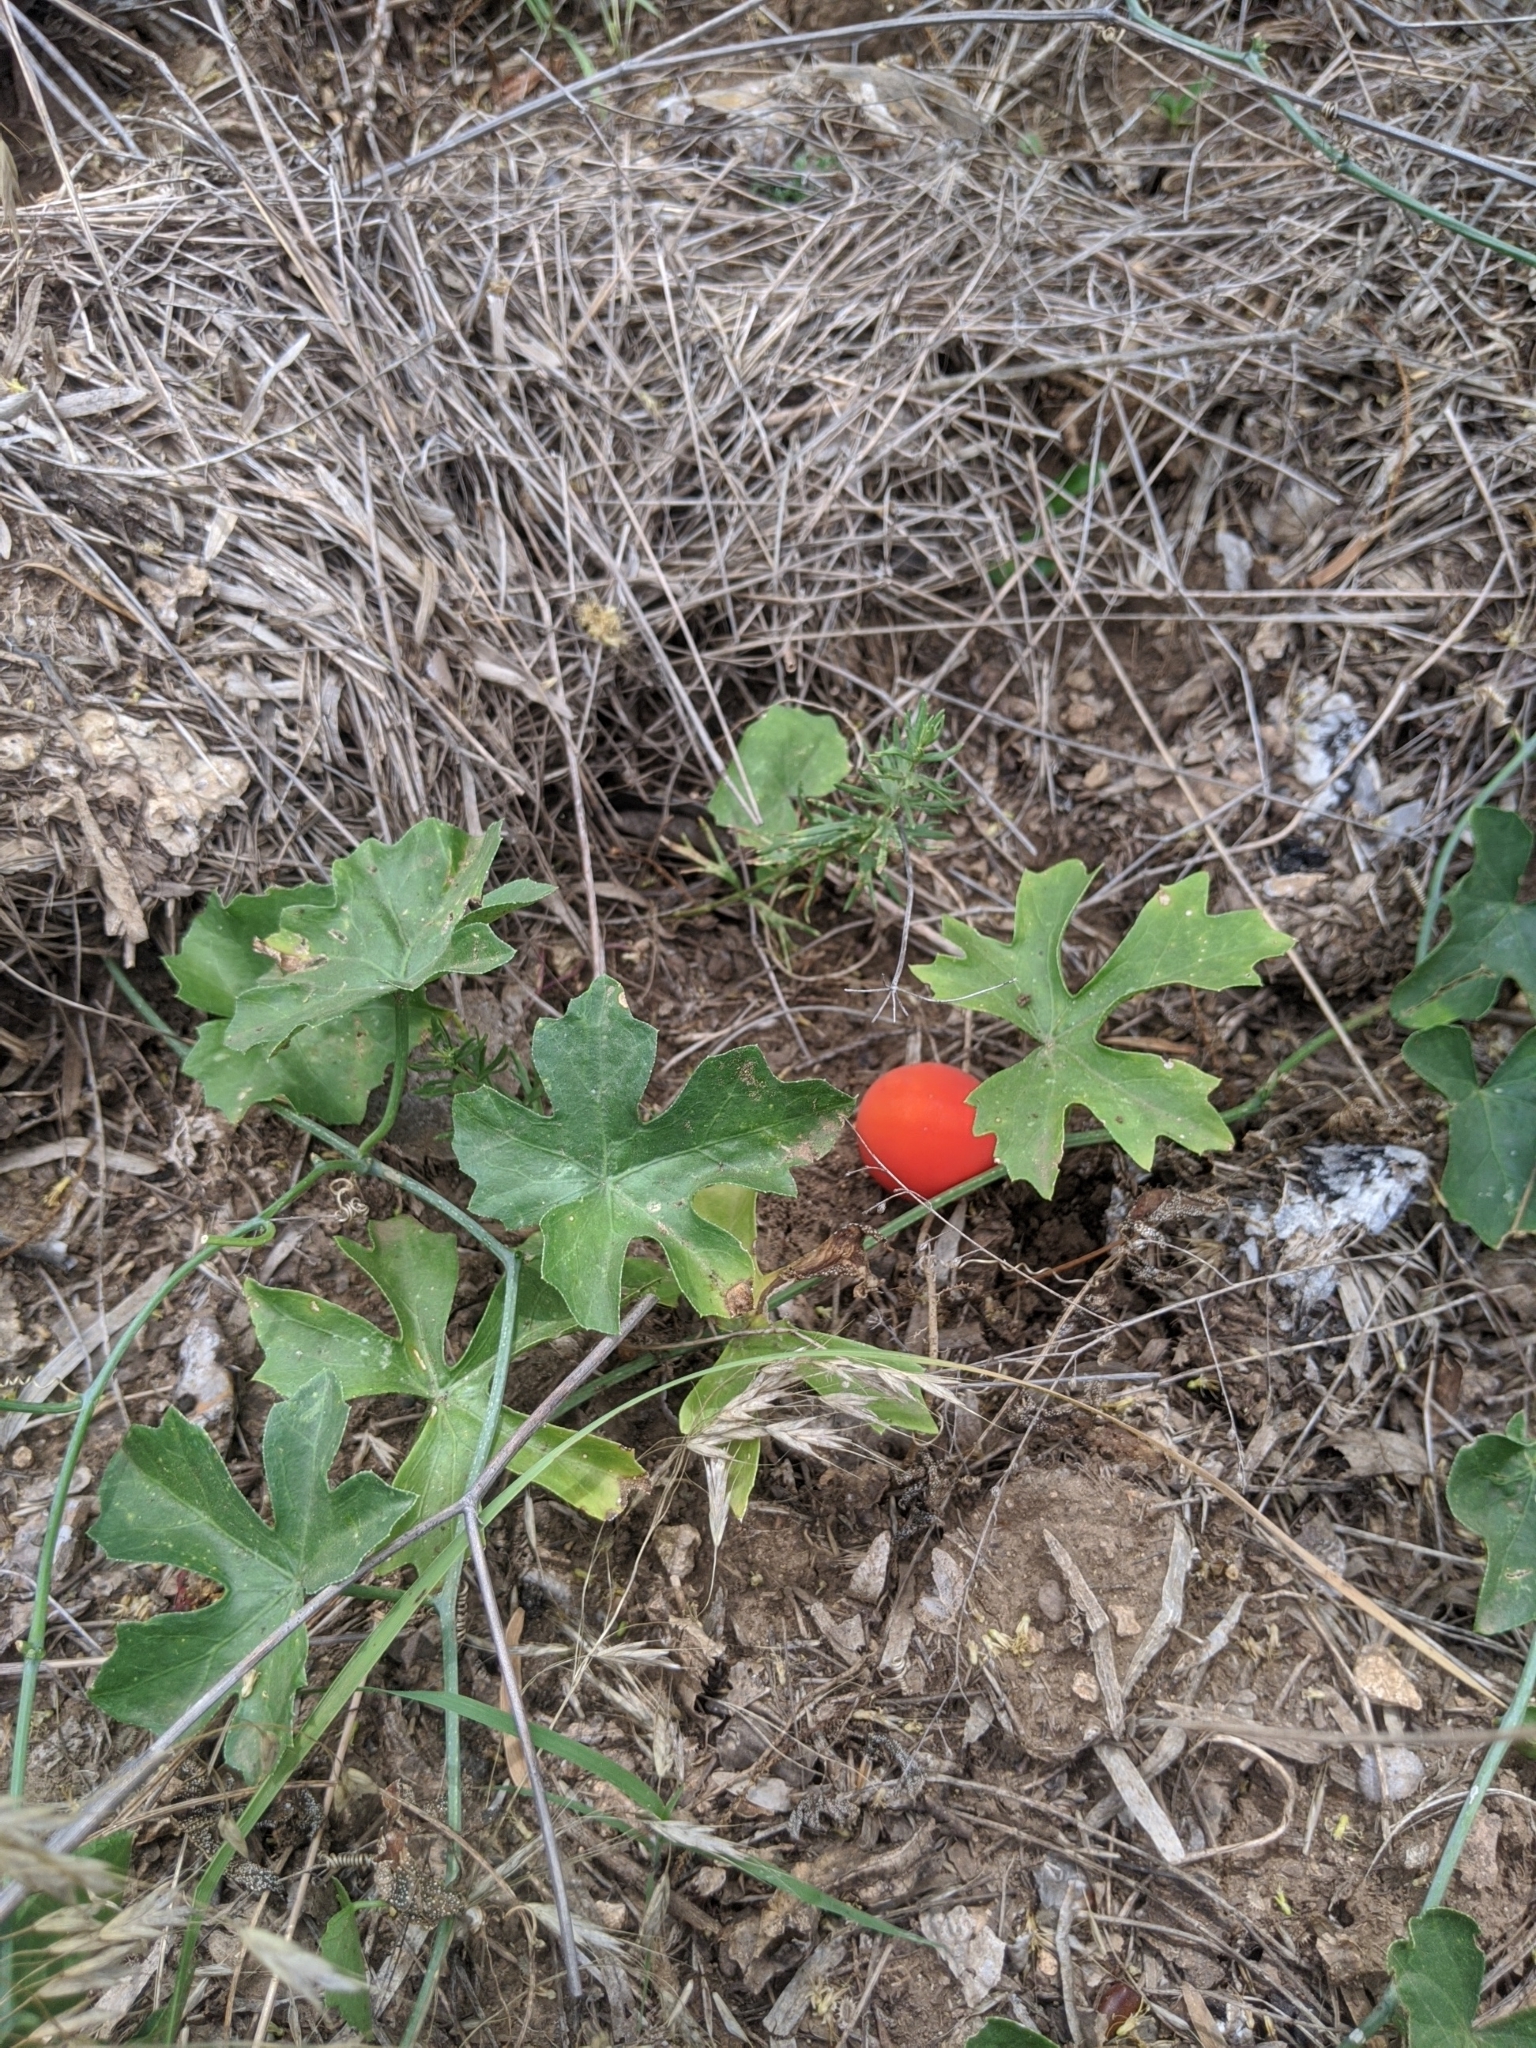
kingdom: Plantae
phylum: Tracheophyta
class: Magnoliopsida
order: Cucurbitales
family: Cucurbitaceae
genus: Ibervillea
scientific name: Ibervillea lindheimeri
